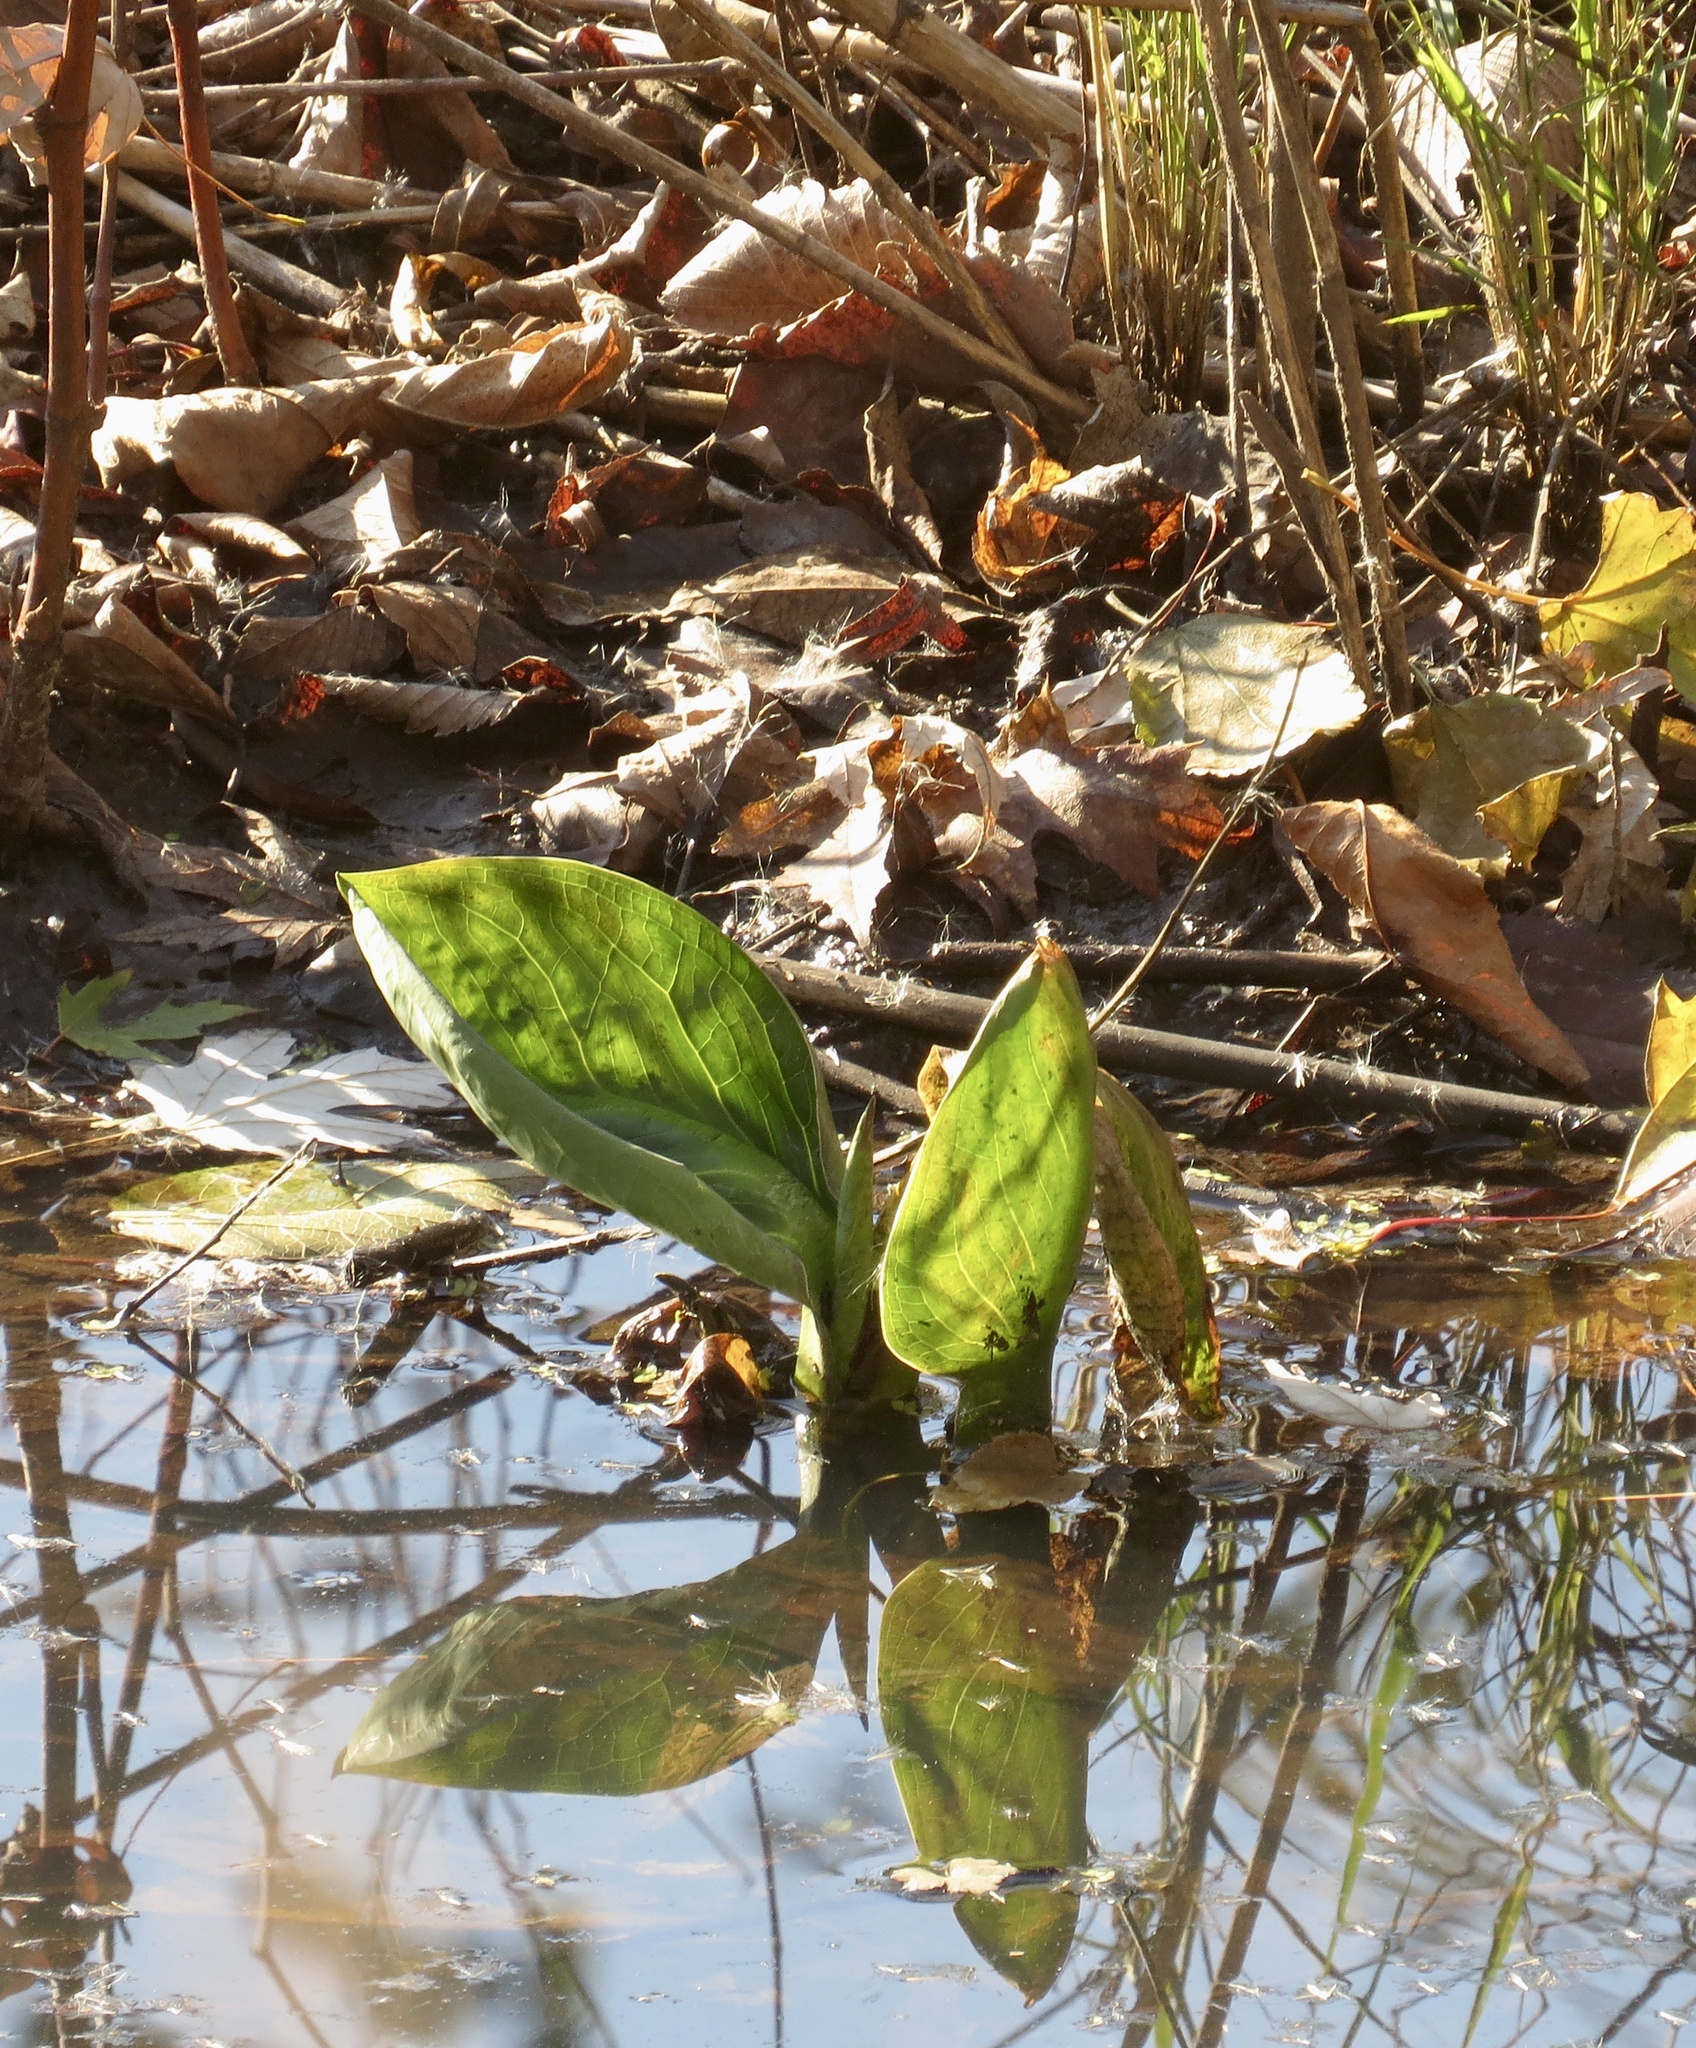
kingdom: Plantae
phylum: Tracheophyta
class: Liliopsida
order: Alismatales
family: Araceae
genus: Symplocarpus
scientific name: Symplocarpus foetidus
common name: Eastern skunk cabbage
